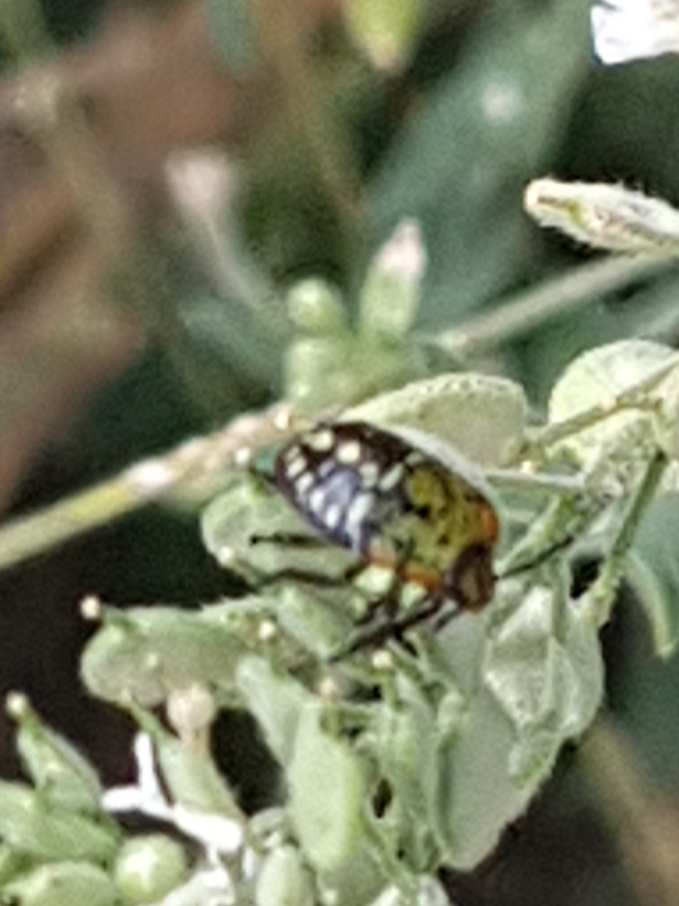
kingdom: Animalia
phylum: Arthropoda
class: Insecta
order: Hemiptera
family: Pentatomidae
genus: Nezara
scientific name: Nezara viridula
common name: Southern green stink bug
